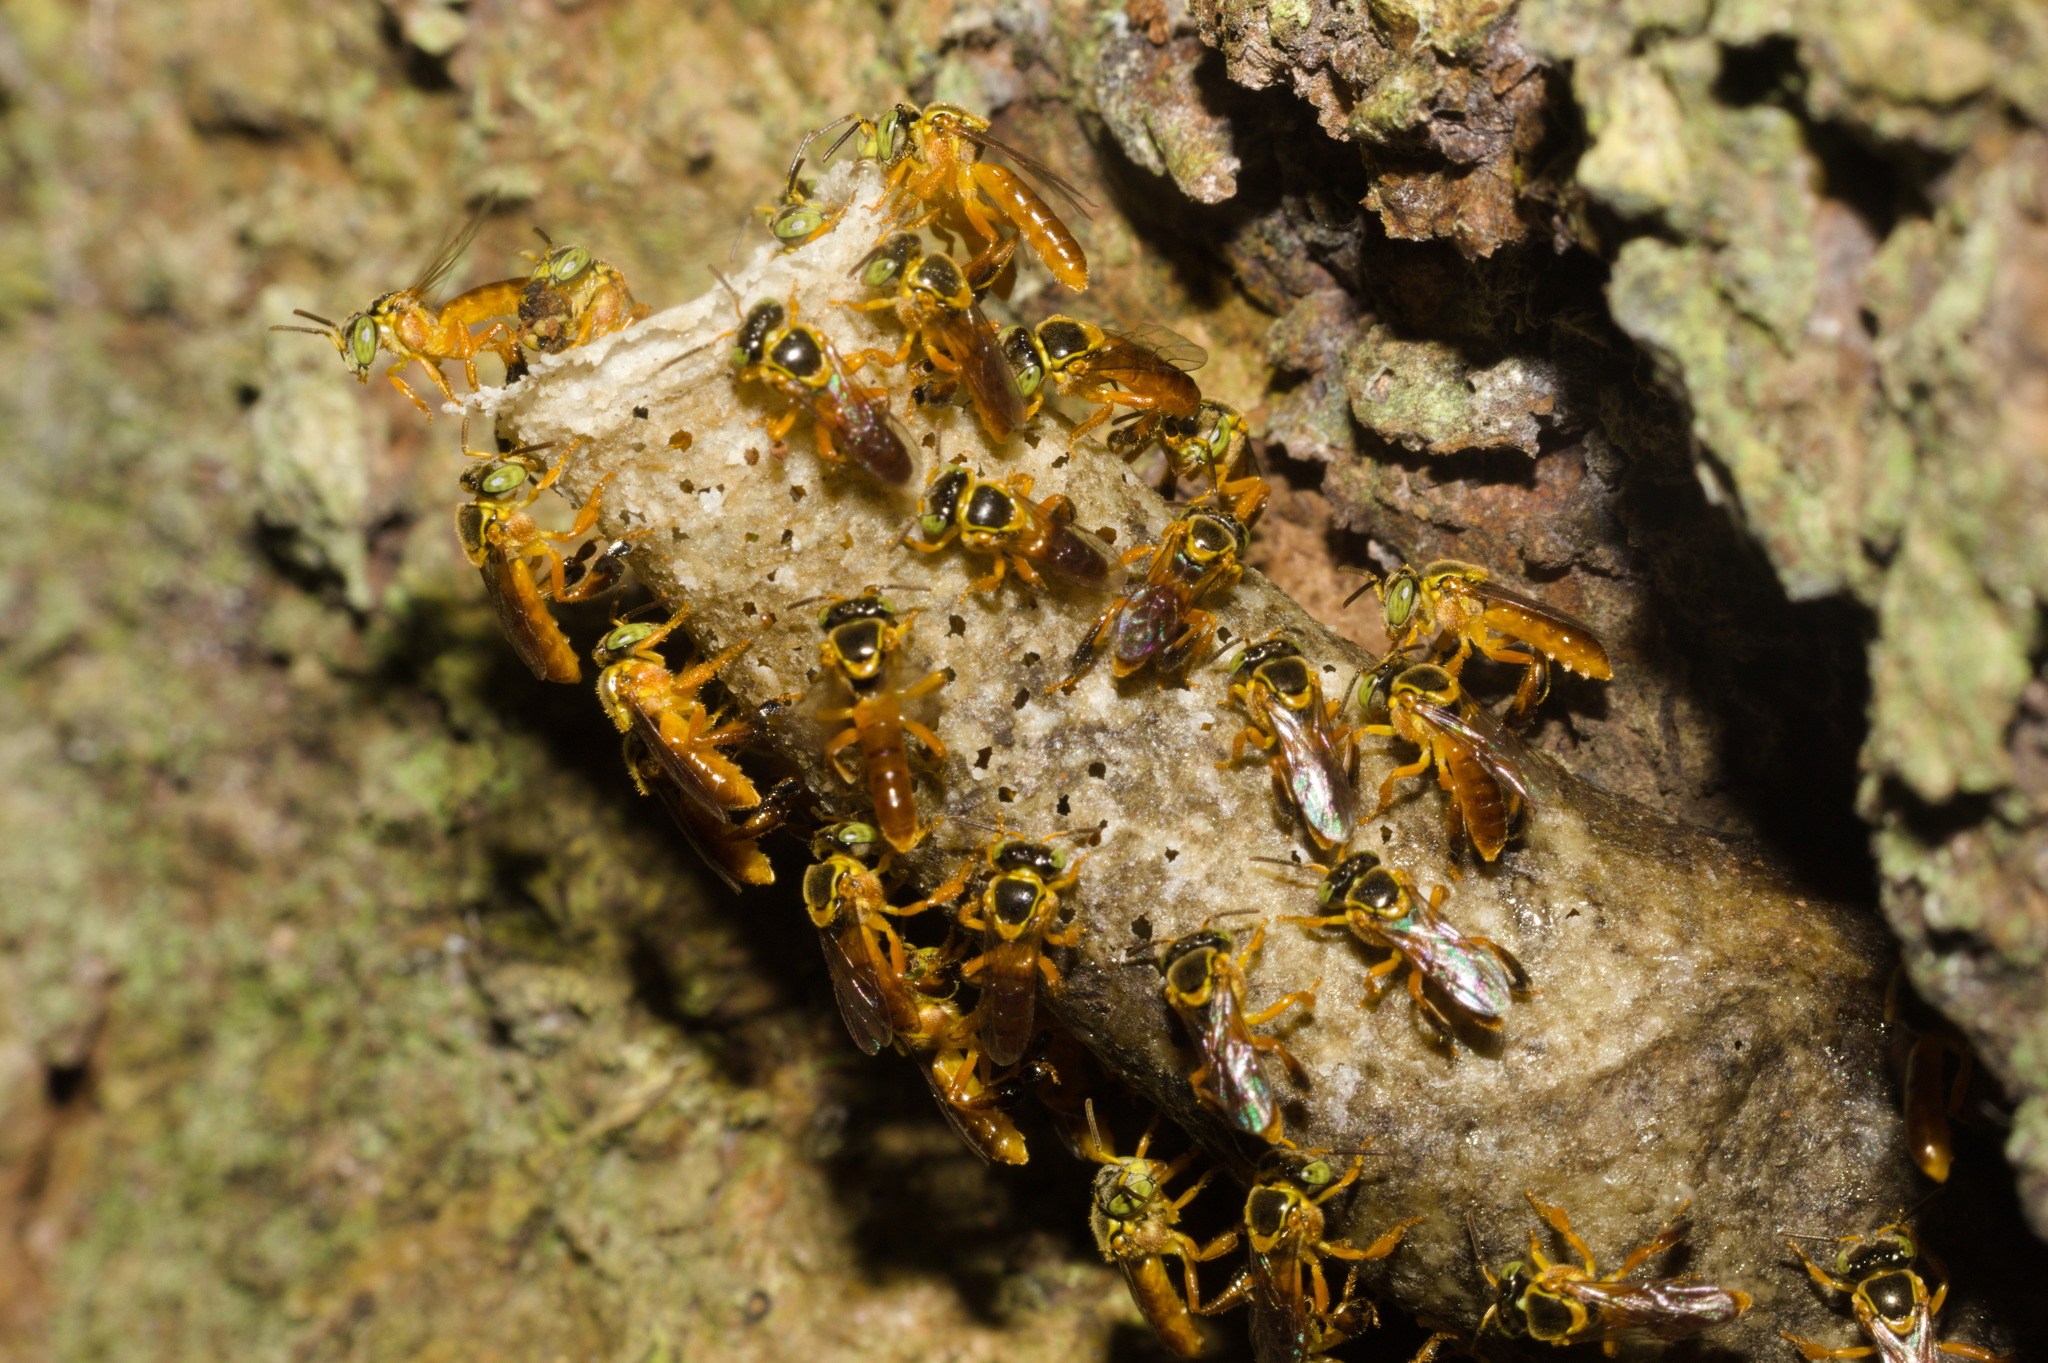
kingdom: Animalia
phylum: Arthropoda
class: Insecta
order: Hymenoptera
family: Apidae
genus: Tetragonisca
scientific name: Tetragonisca fiebrigi
